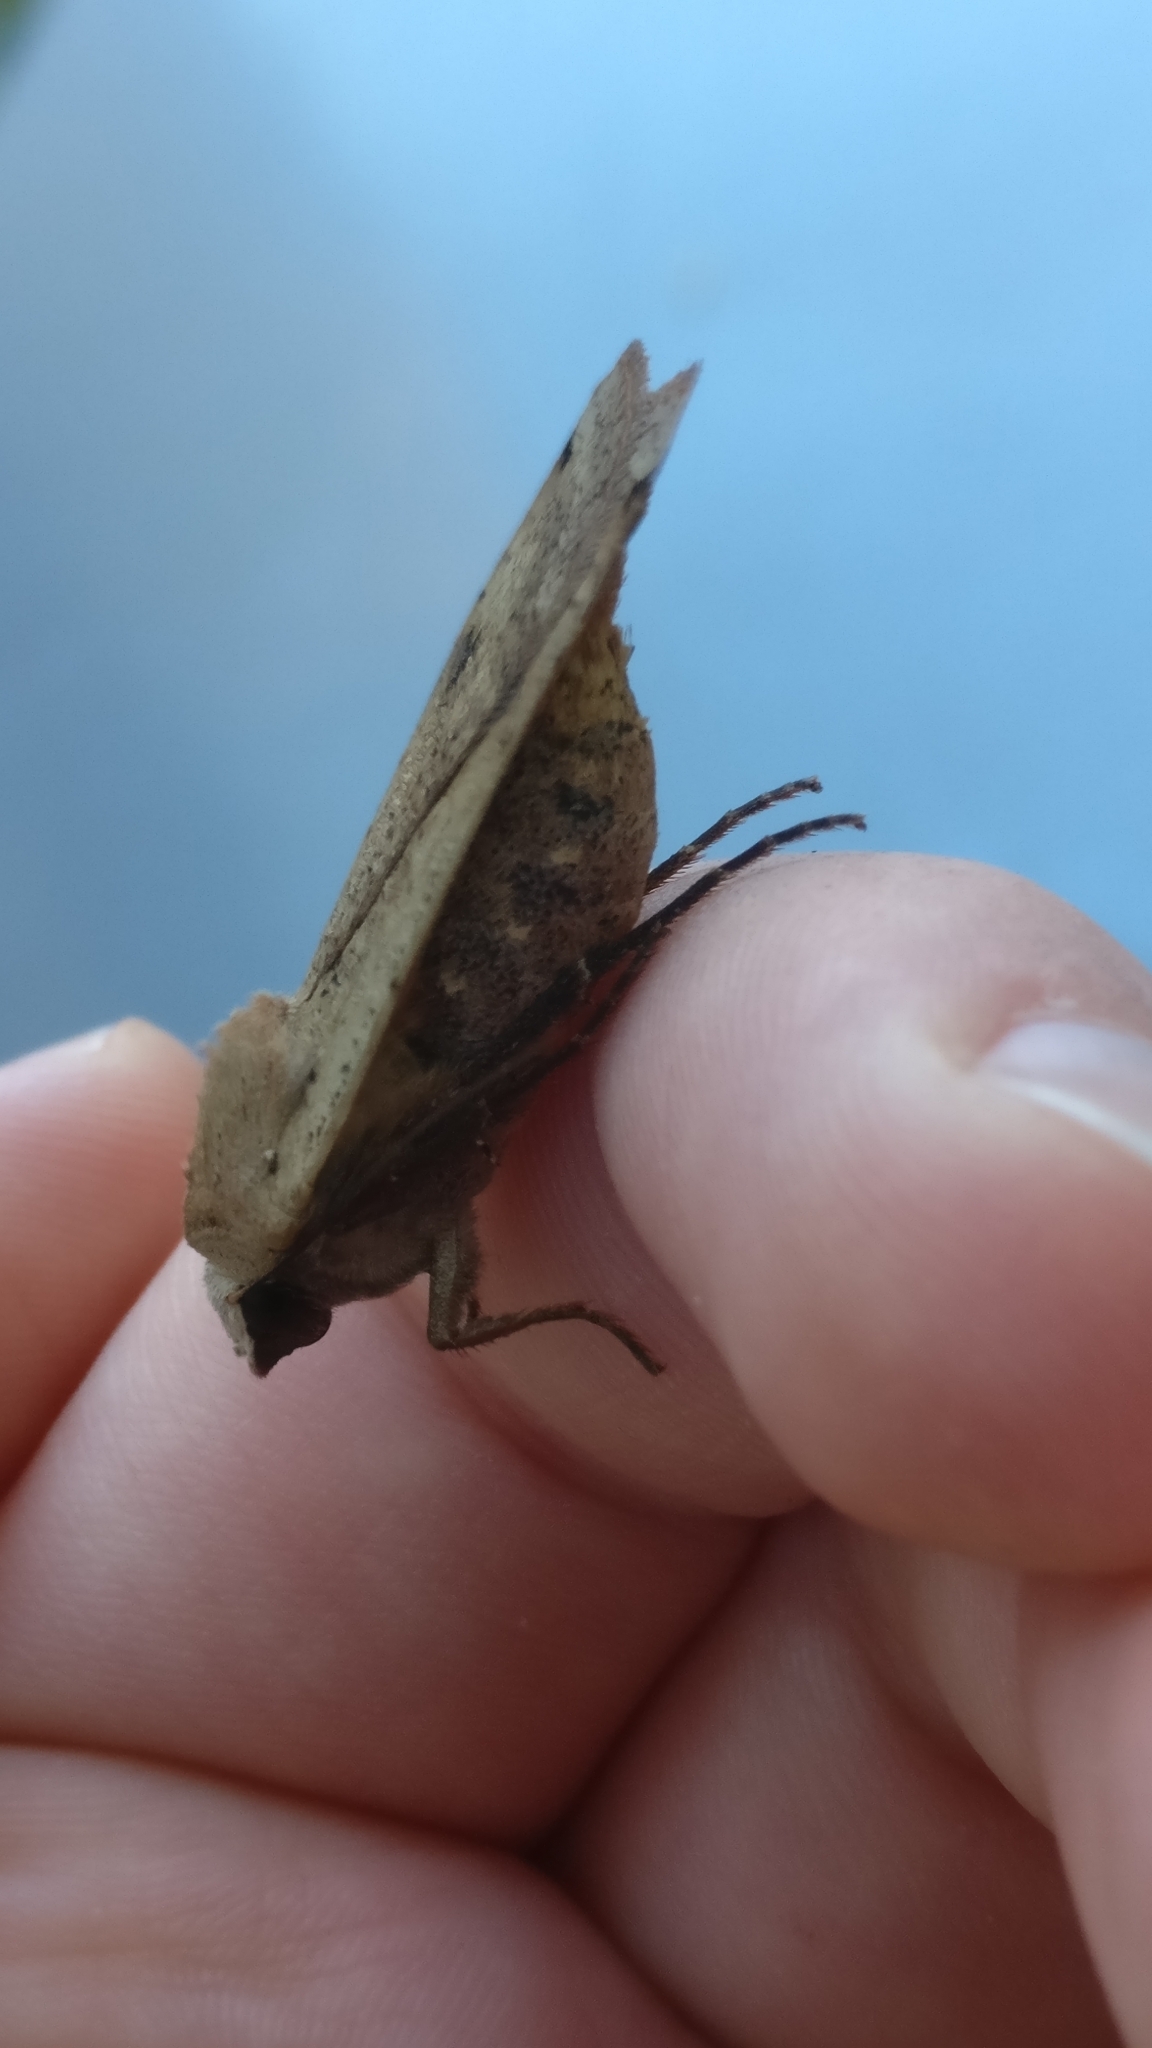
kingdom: Animalia
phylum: Arthropoda
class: Insecta
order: Lepidoptera
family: Noctuidae
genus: Noctua
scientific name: Noctua pronuba
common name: Large yellow underwing
